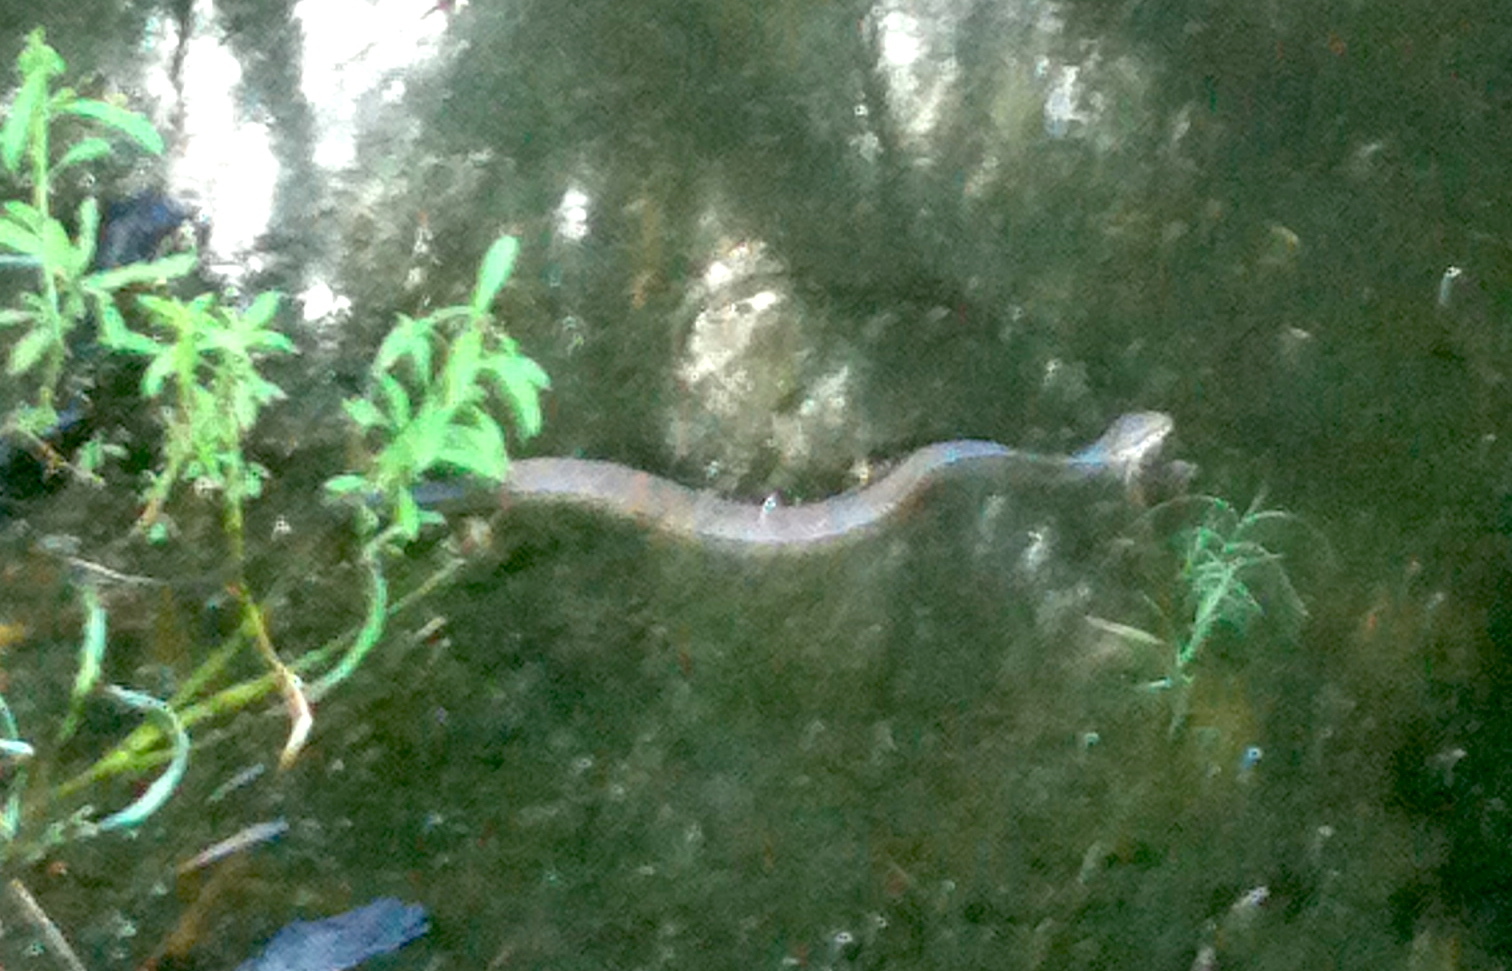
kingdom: Animalia
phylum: Chordata
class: Squamata
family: Viperidae
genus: Agkistrodon
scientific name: Agkistrodon conanti
